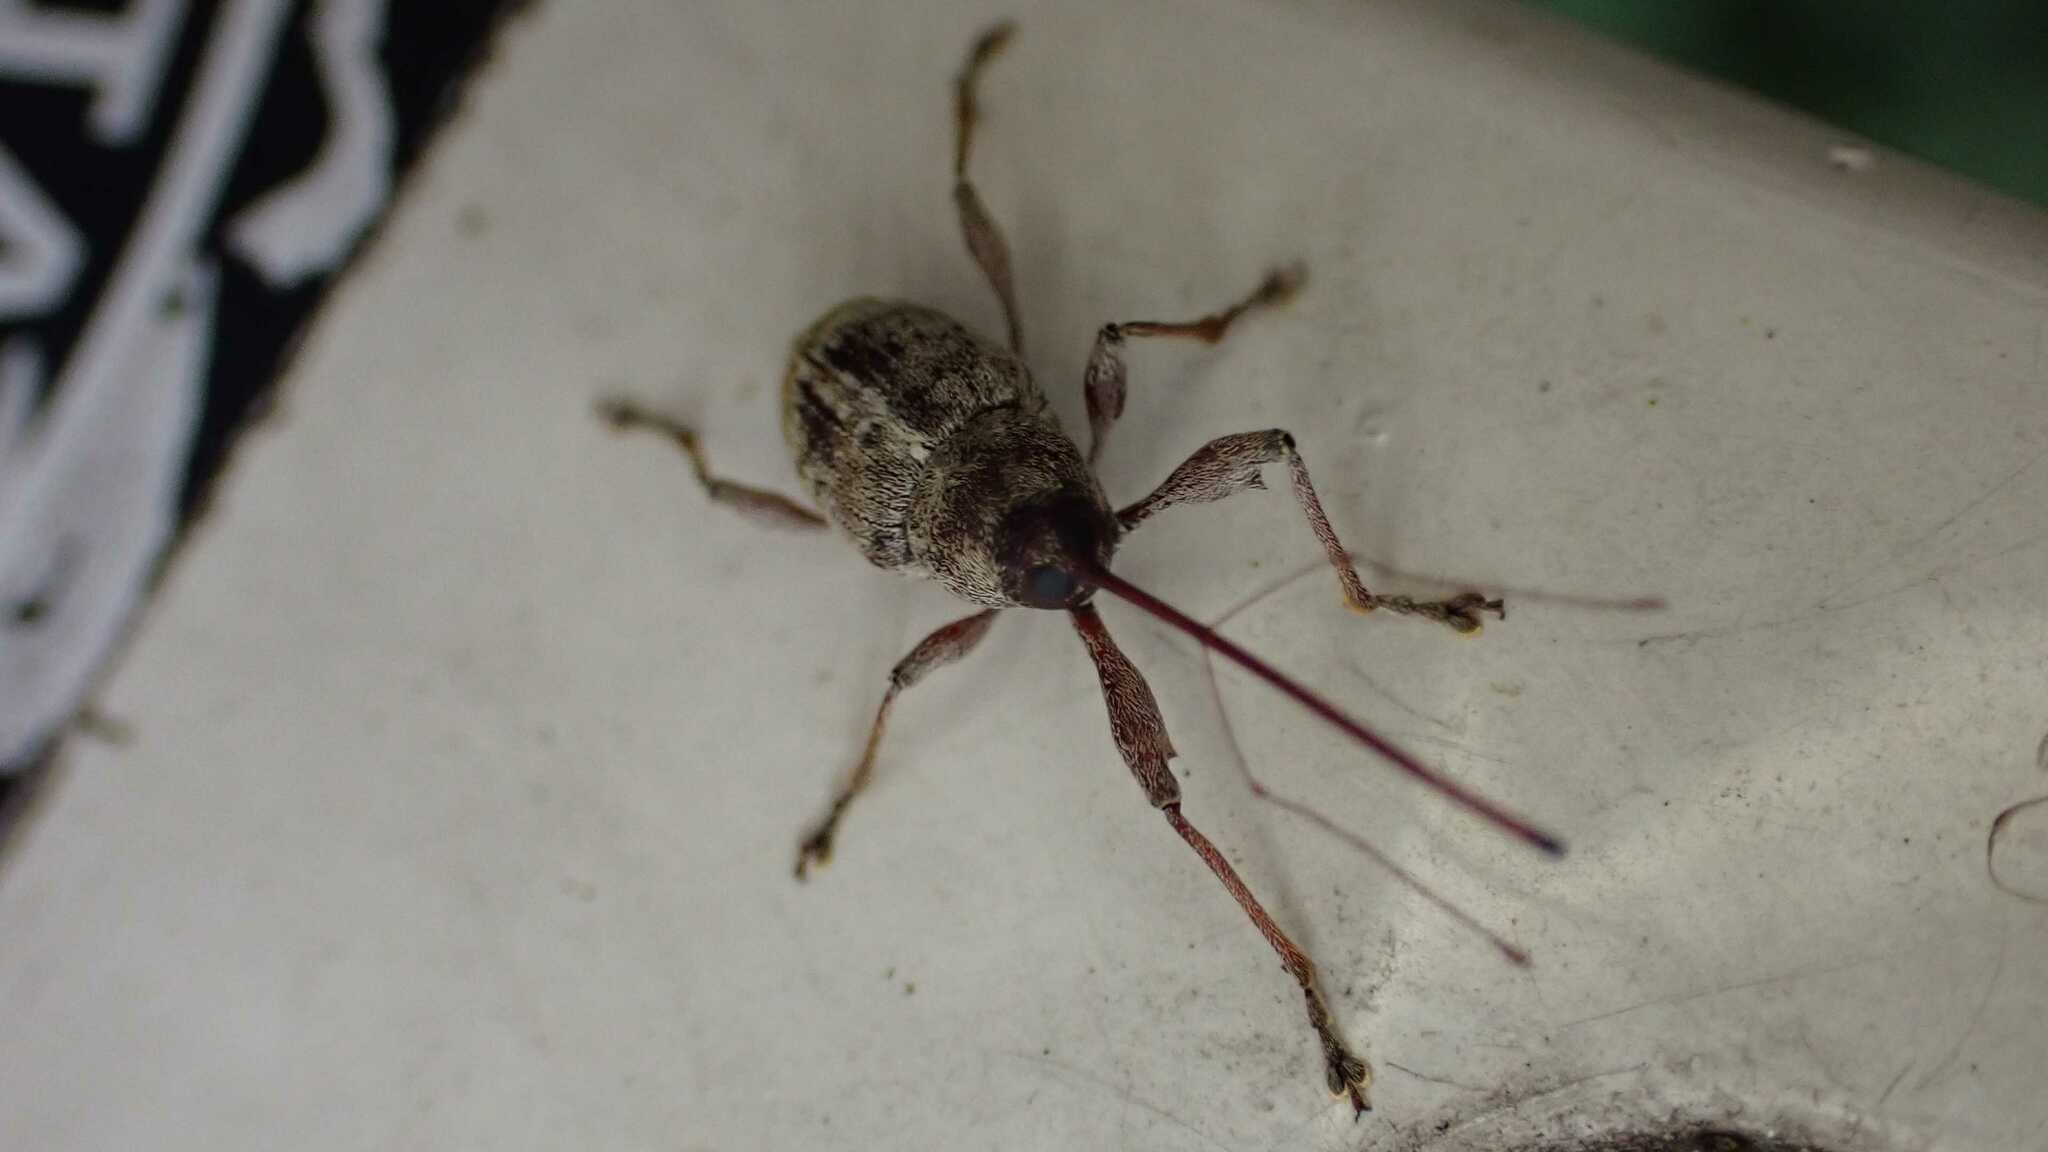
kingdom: Animalia
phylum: Arthropoda
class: Insecta
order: Coleoptera
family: Curculionidae
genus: Curculio
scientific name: Curculio elephas
